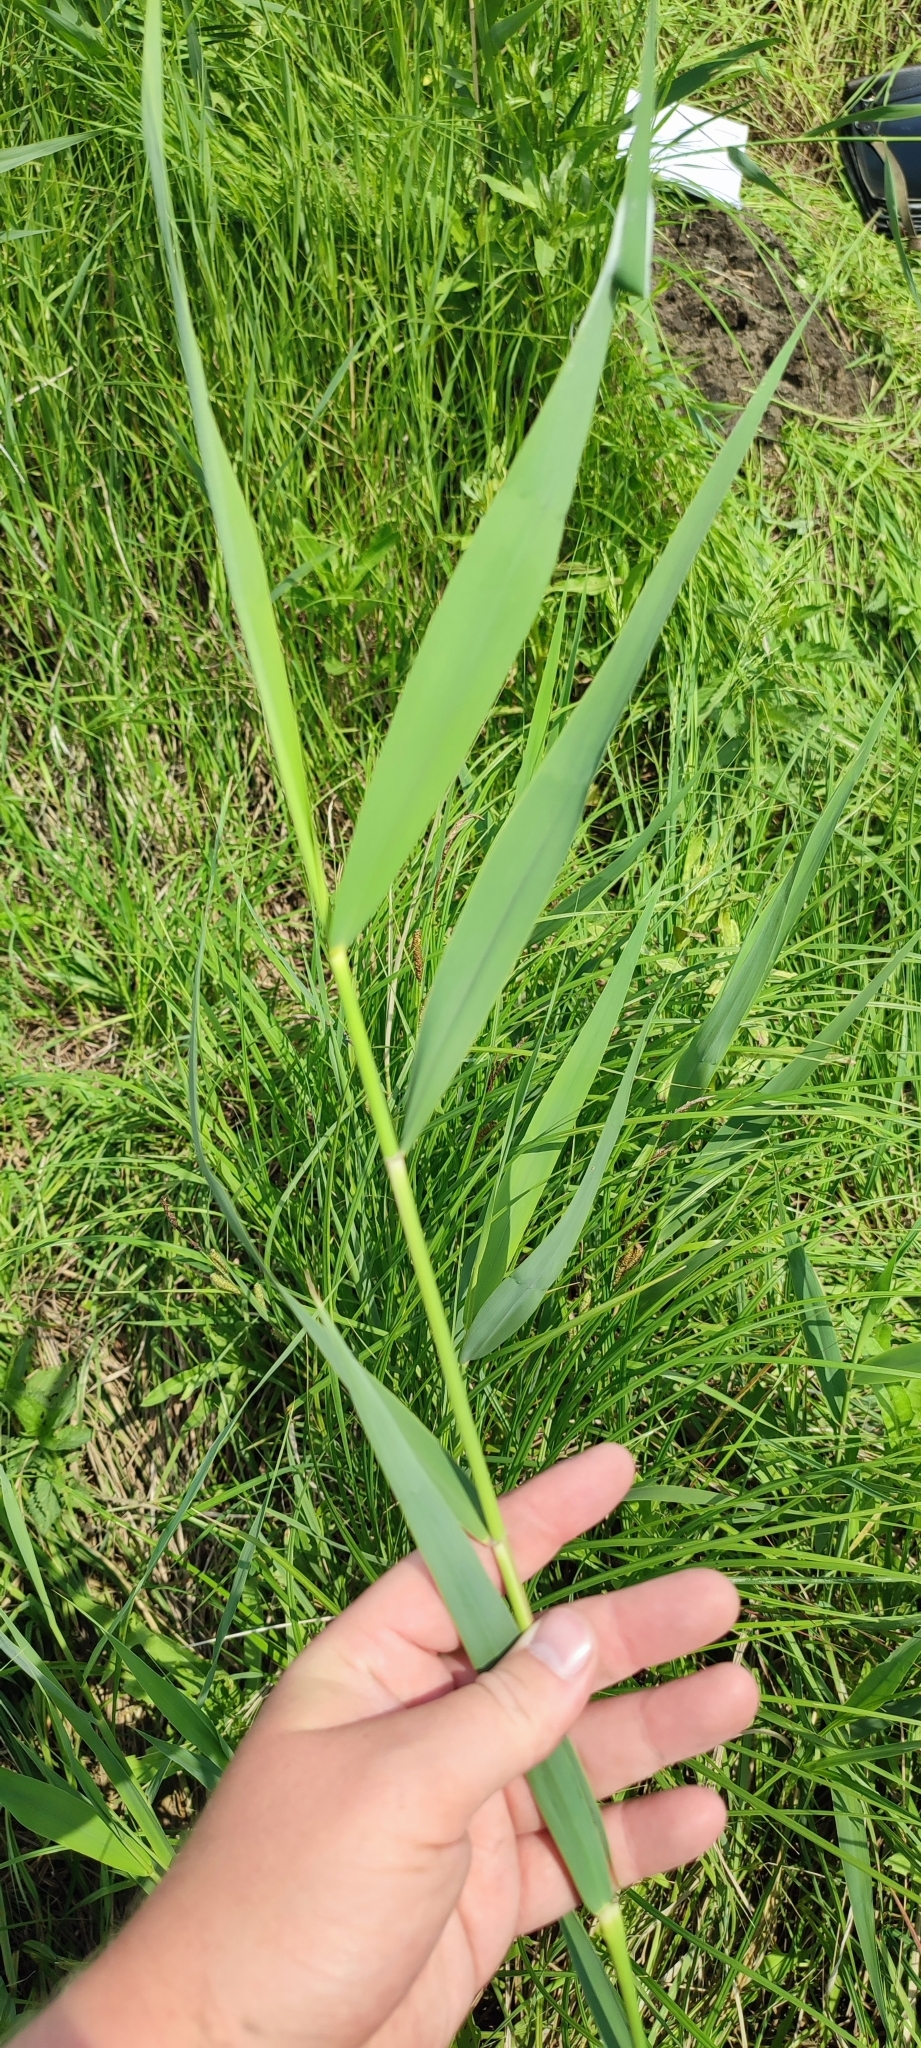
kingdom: Plantae
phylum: Tracheophyta
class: Liliopsida
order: Poales
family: Poaceae
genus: Phragmites
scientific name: Phragmites australis
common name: Common reed
